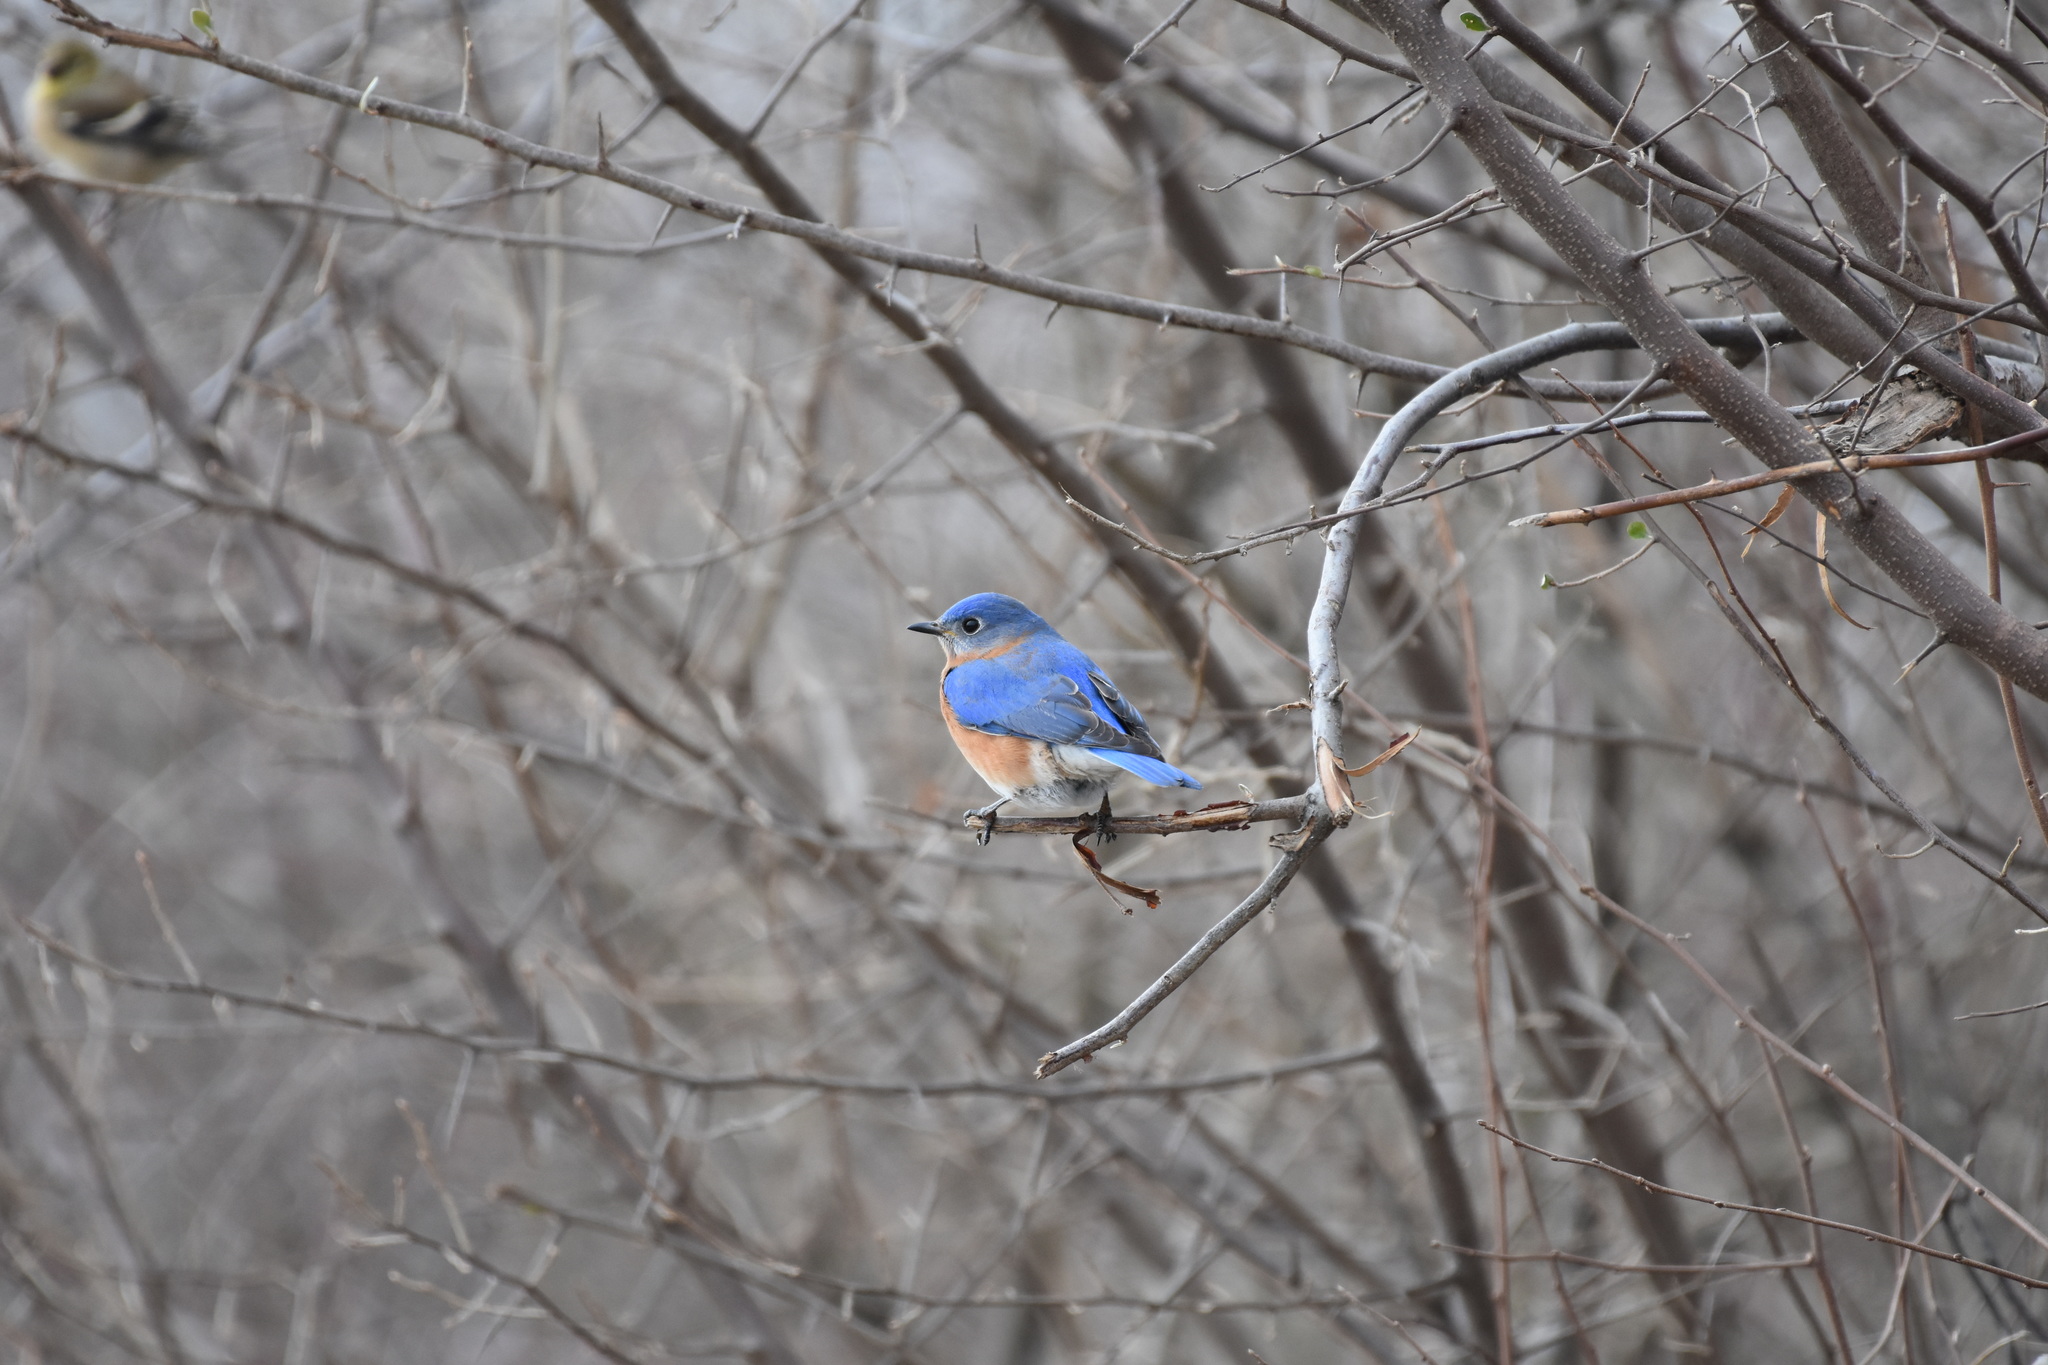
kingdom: Animalia
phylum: Chordata
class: Aves
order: Passeriformes
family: Turdidae
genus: Sialia
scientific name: Sialia sialis
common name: Eastern bluebird
